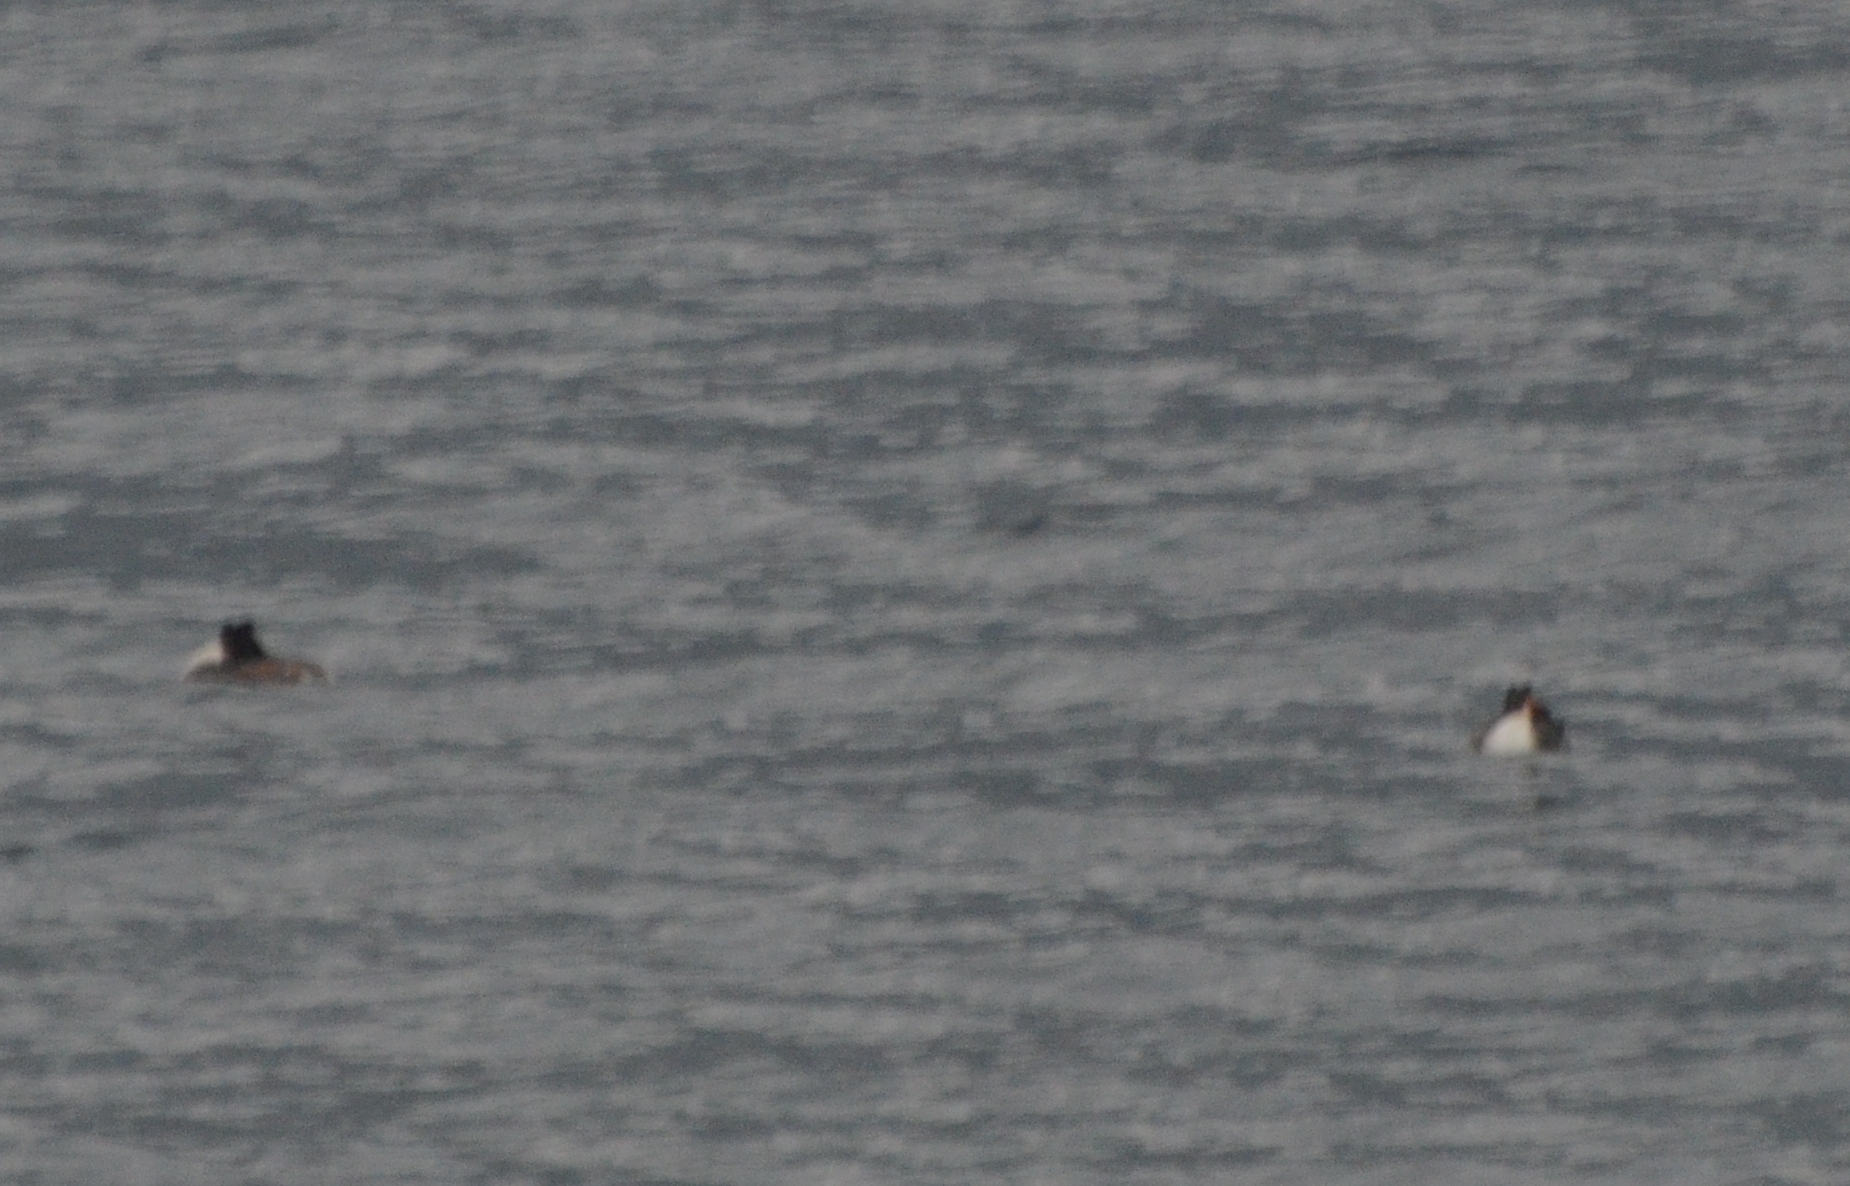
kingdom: Animalia
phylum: Chordata
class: Aves
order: Podicipediformes
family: Podicipedidae
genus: Podiceps
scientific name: Podiceps cristatus
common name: Great crested grebe
